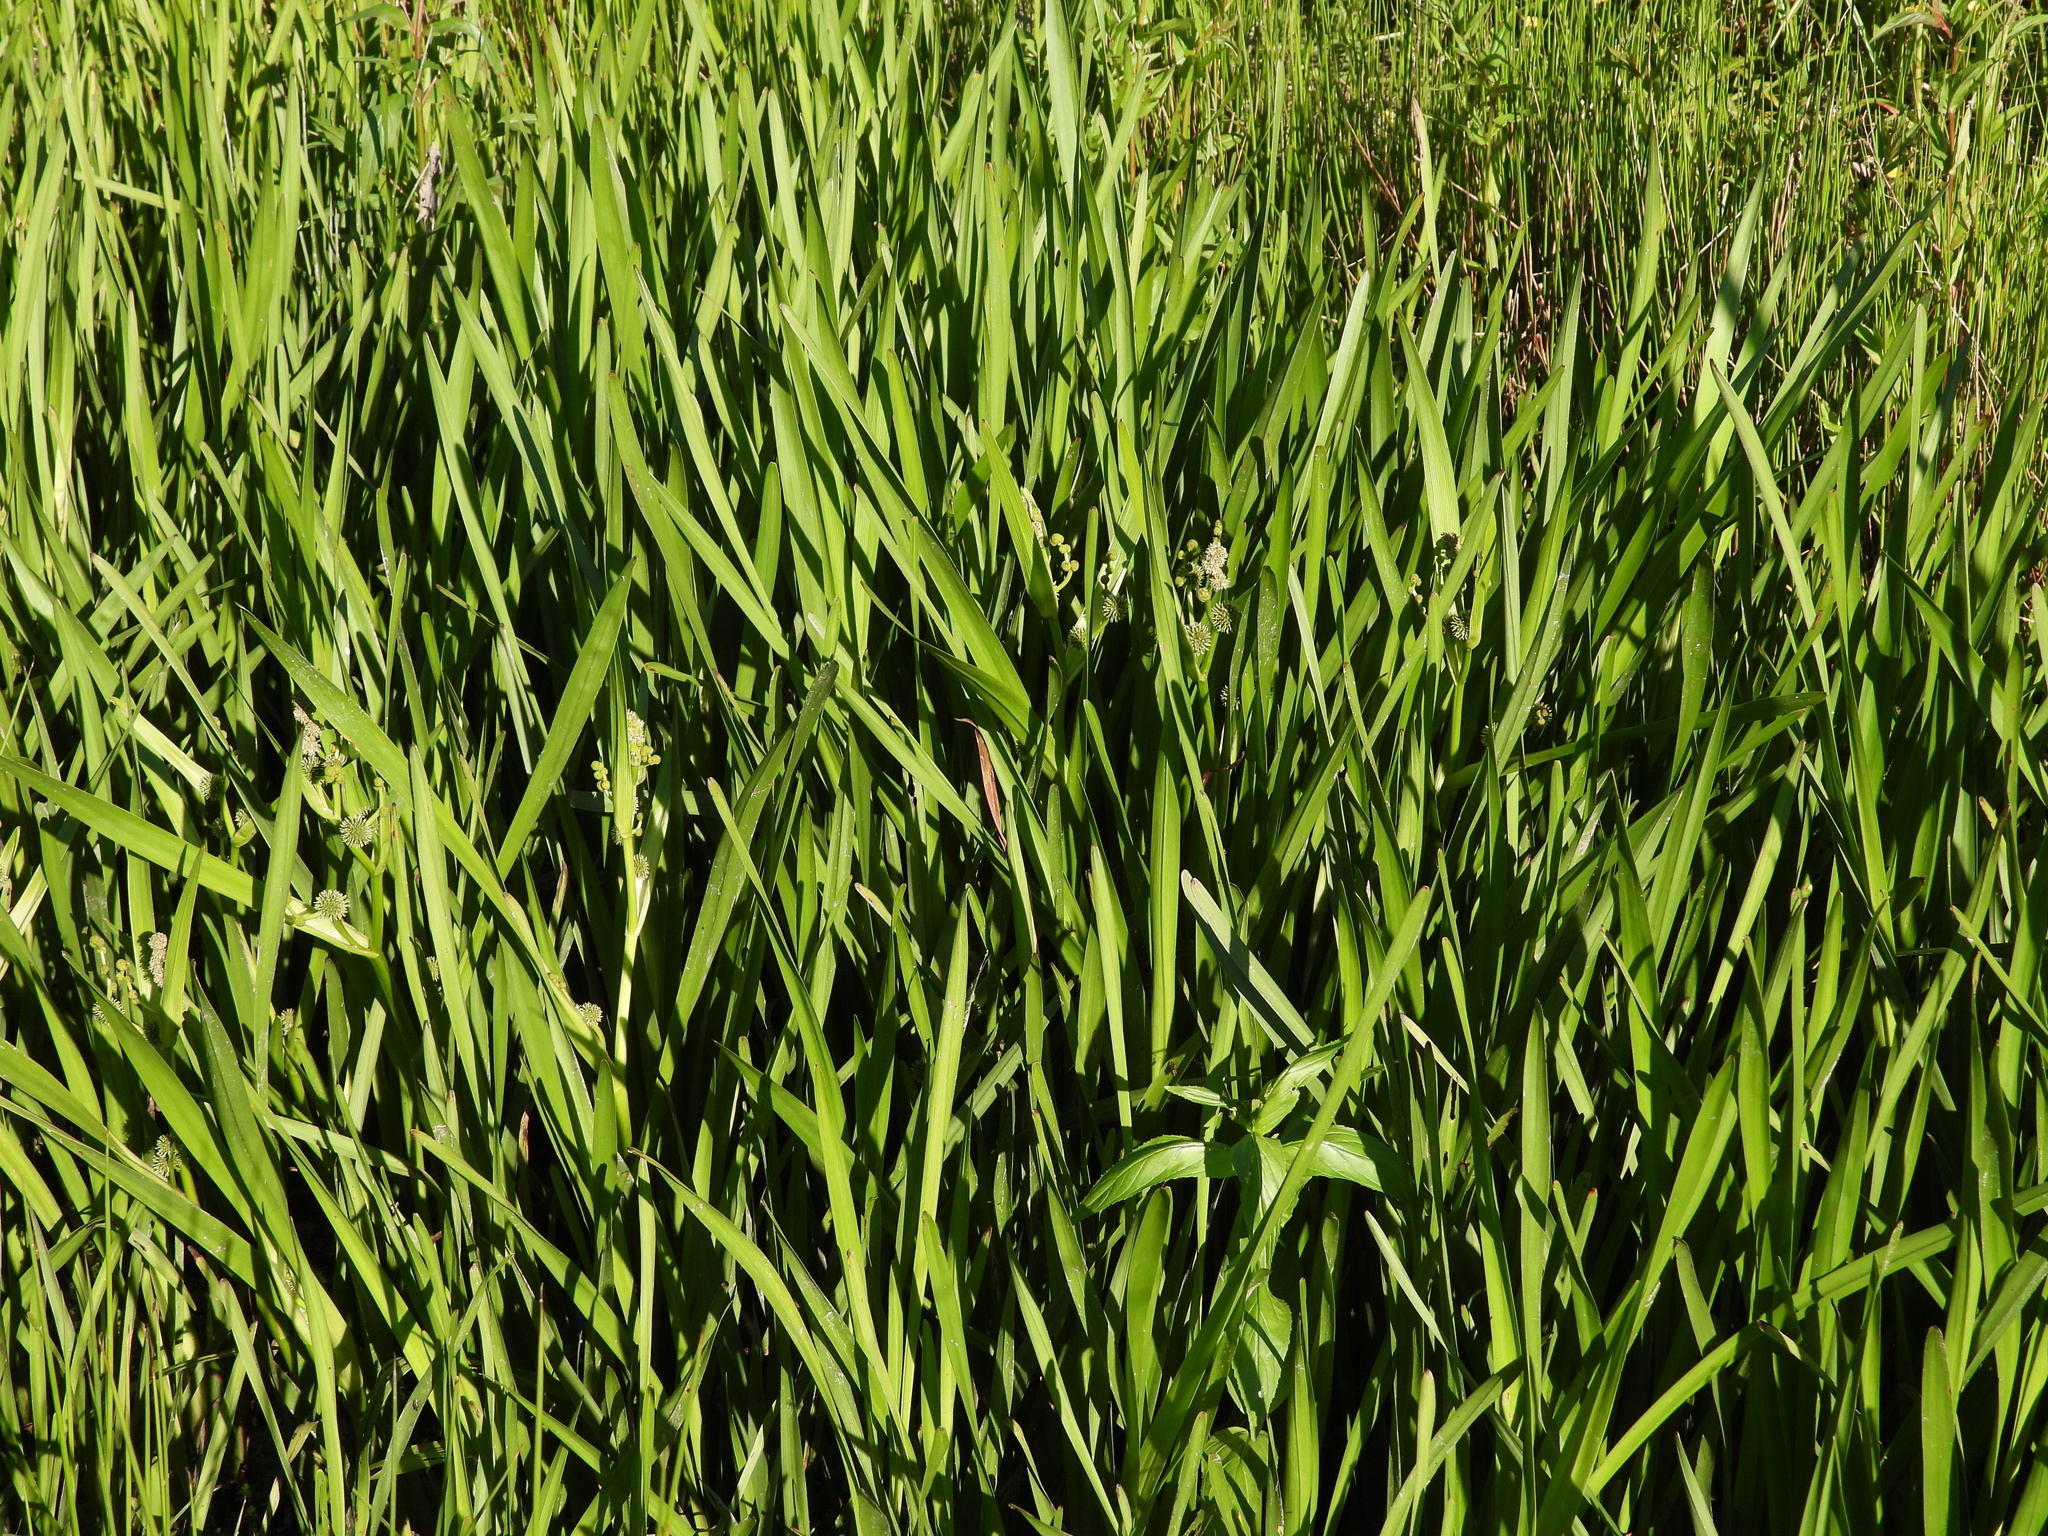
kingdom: Plantae
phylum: Tracheophyta
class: Liliopsida
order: Poales
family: Typhaceae
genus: Sparganium
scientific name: Sparganium erectum
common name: Branched bur-reed
